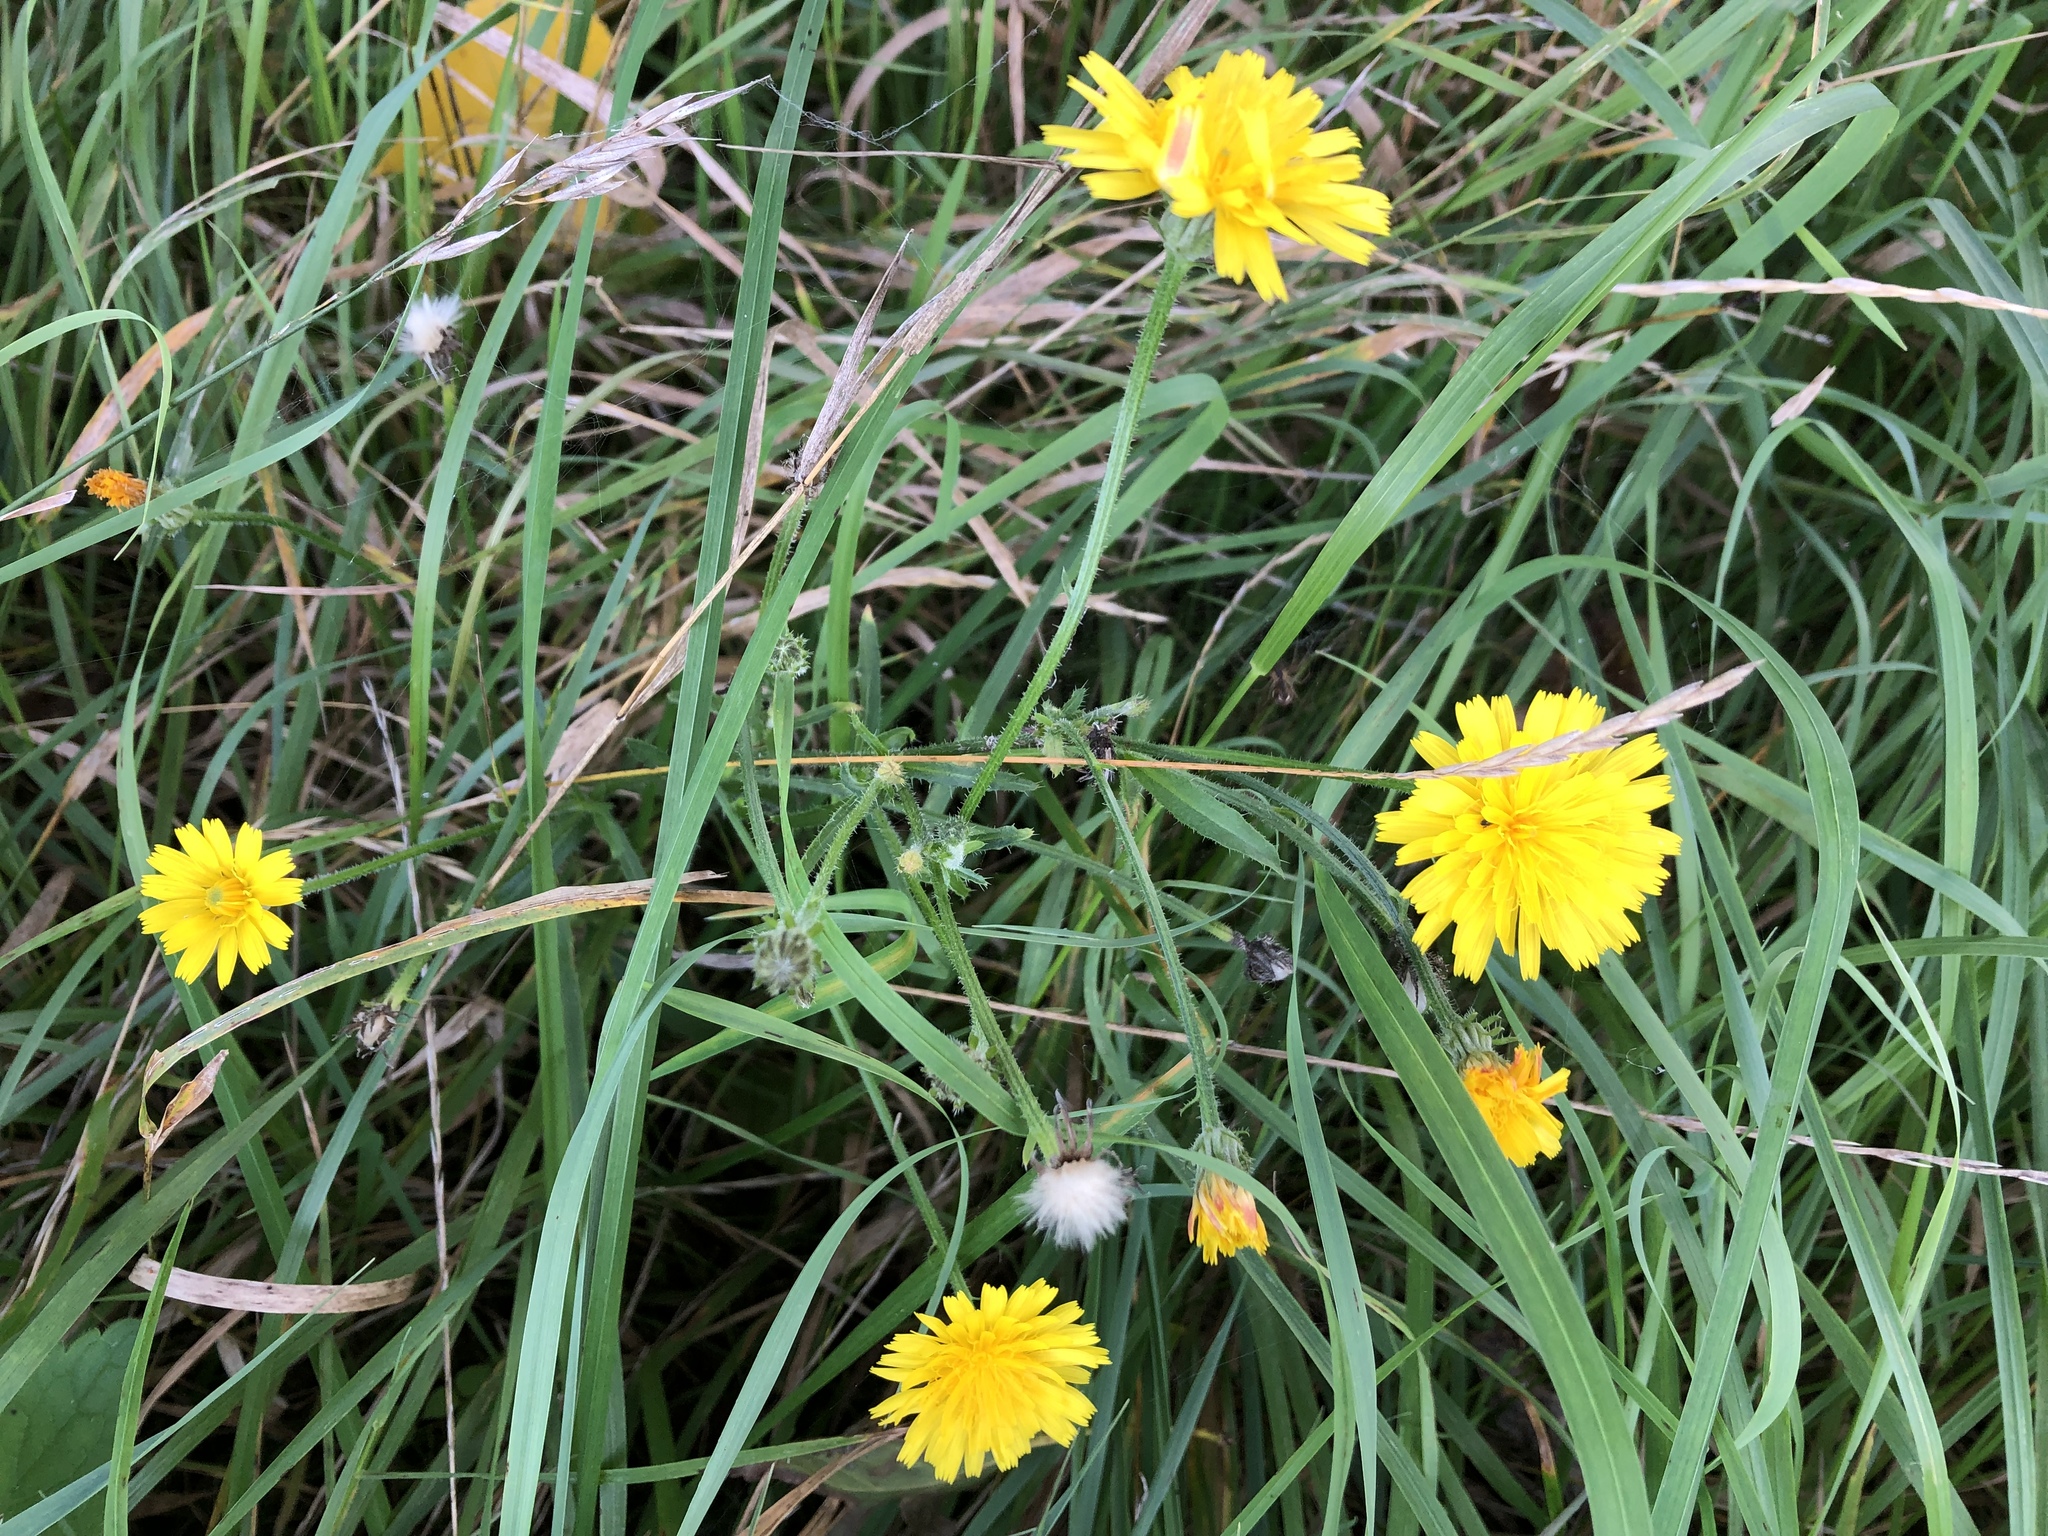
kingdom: Plantae
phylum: Tracheophyta
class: Magnoliopsida
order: Asterales
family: Asteraceae
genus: Picris
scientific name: Picris hieracioides
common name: Hawkweed oxtongue
